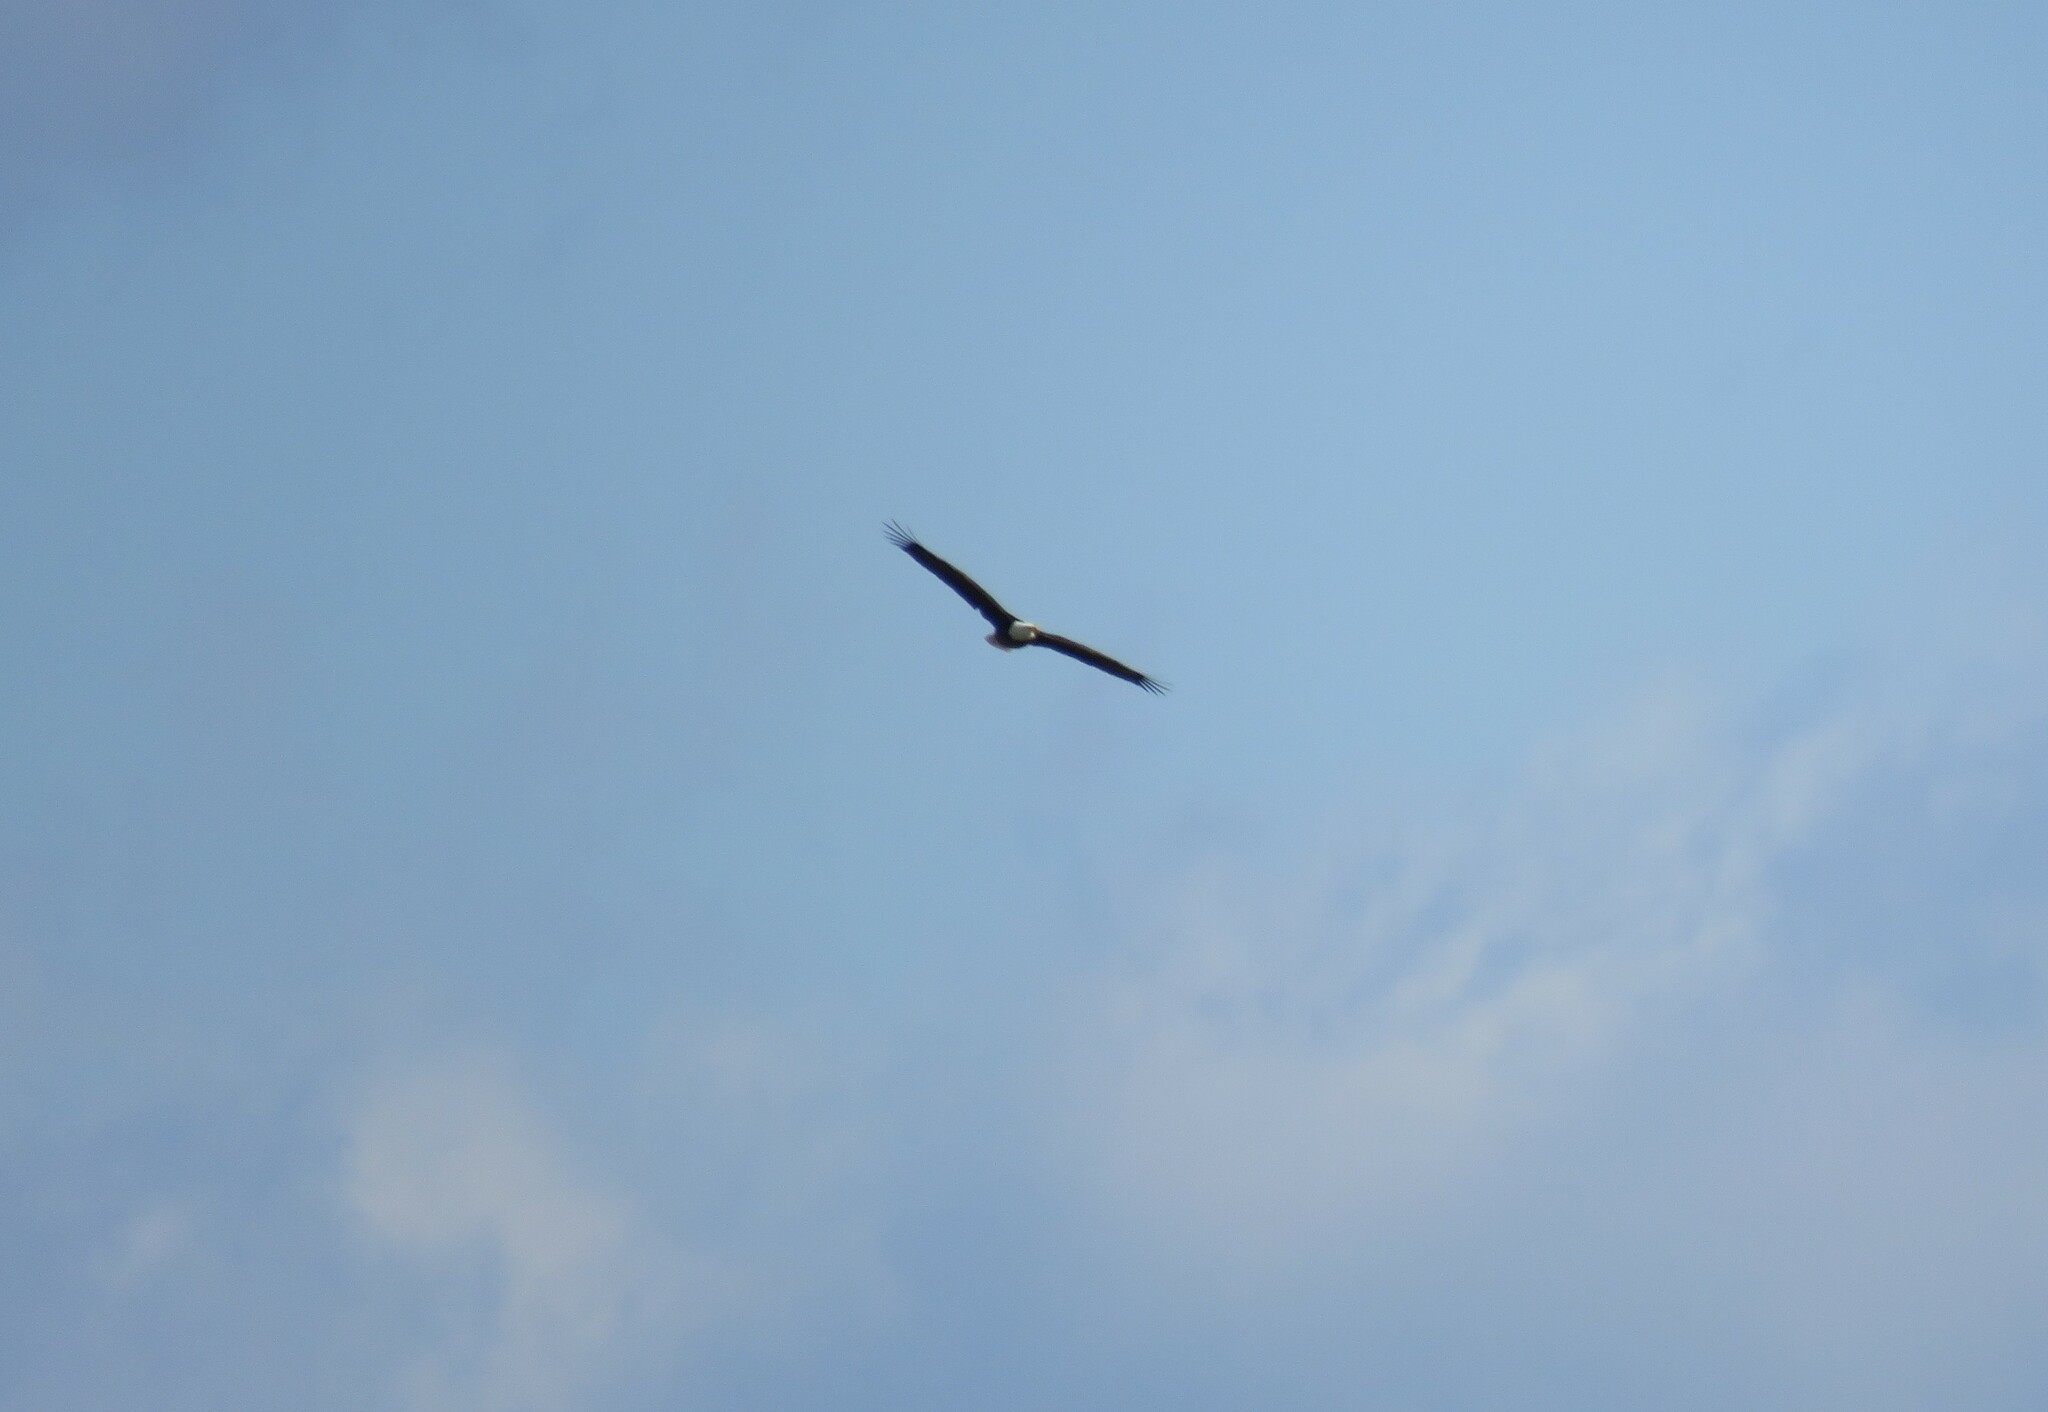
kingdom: Animalia
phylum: Chordata
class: Aves
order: Accipitriformes
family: Accipitridae
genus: Haliaeetus
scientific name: Haliaeetus leucocephalus
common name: Bald eagle
